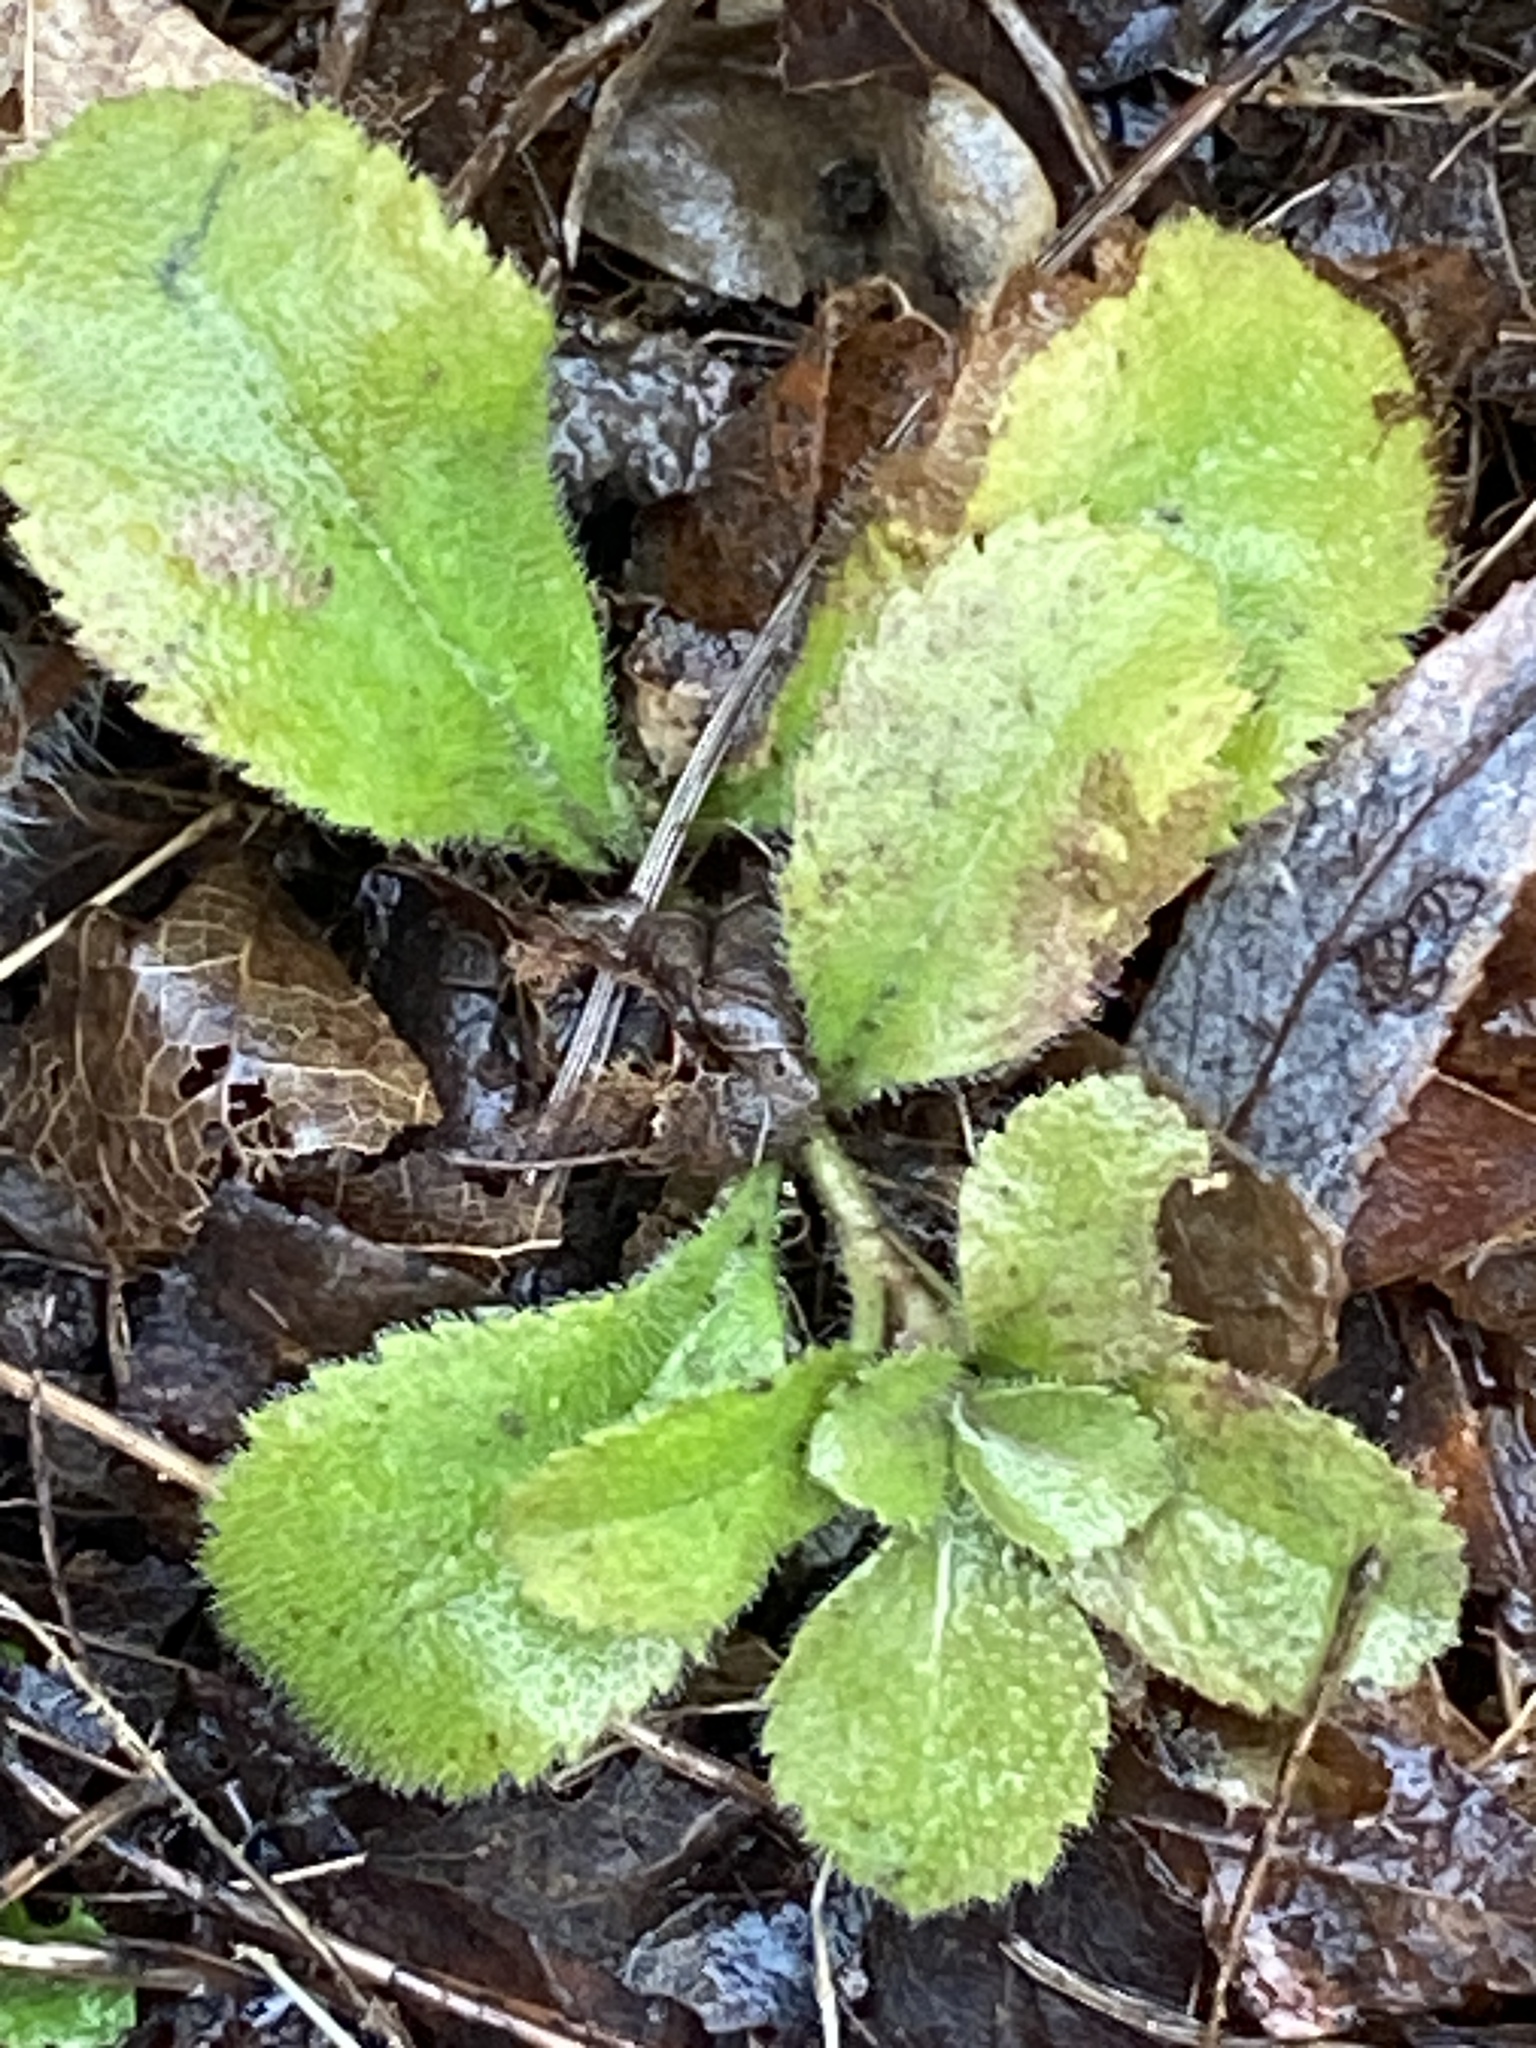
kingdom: Plantae
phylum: Tracheophyta
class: Magnoliopsida
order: Lamiales
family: Plantaginaceae
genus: Veronica
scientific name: Veronica officinalis
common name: Common speedwell
